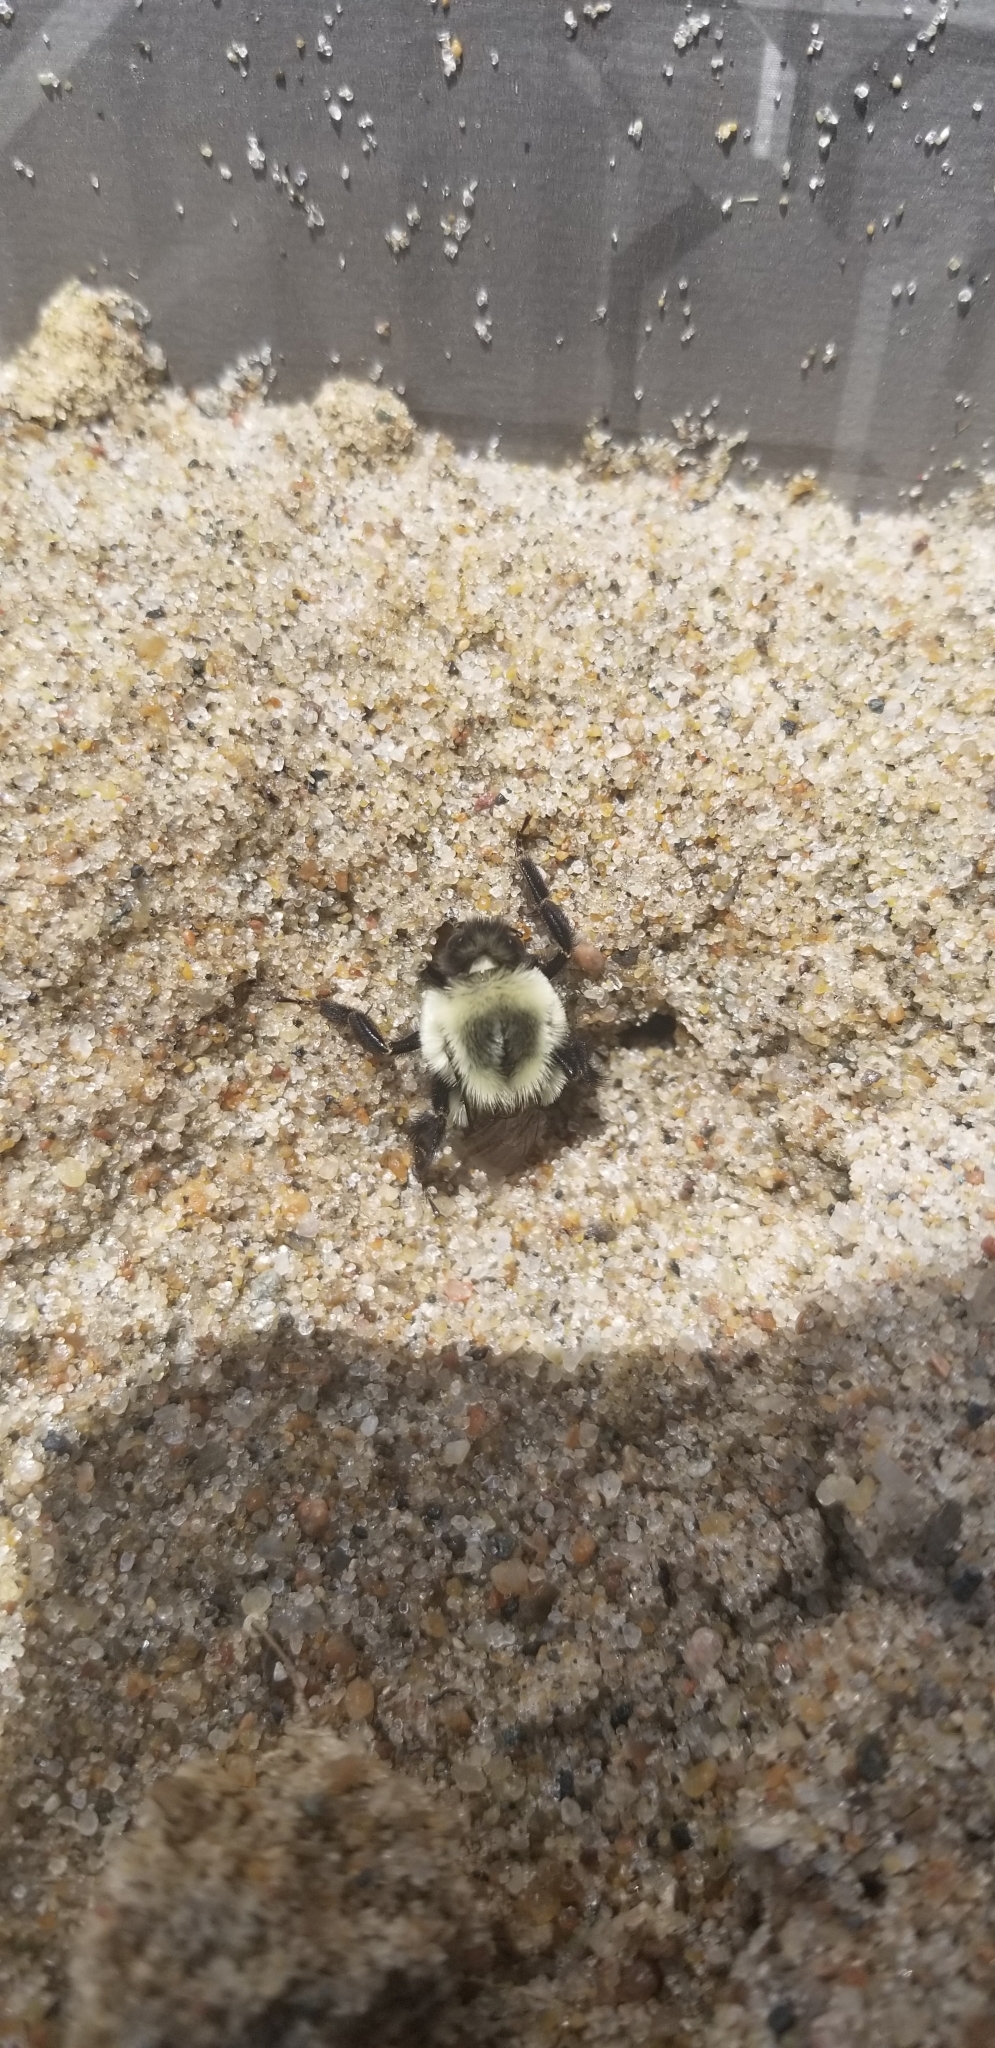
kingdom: Animalia
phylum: Arthropoda
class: Insecta
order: Hymenoptera
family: Apidae
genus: Bombus
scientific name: Bombus impatiens
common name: Common eastern bumble bee
